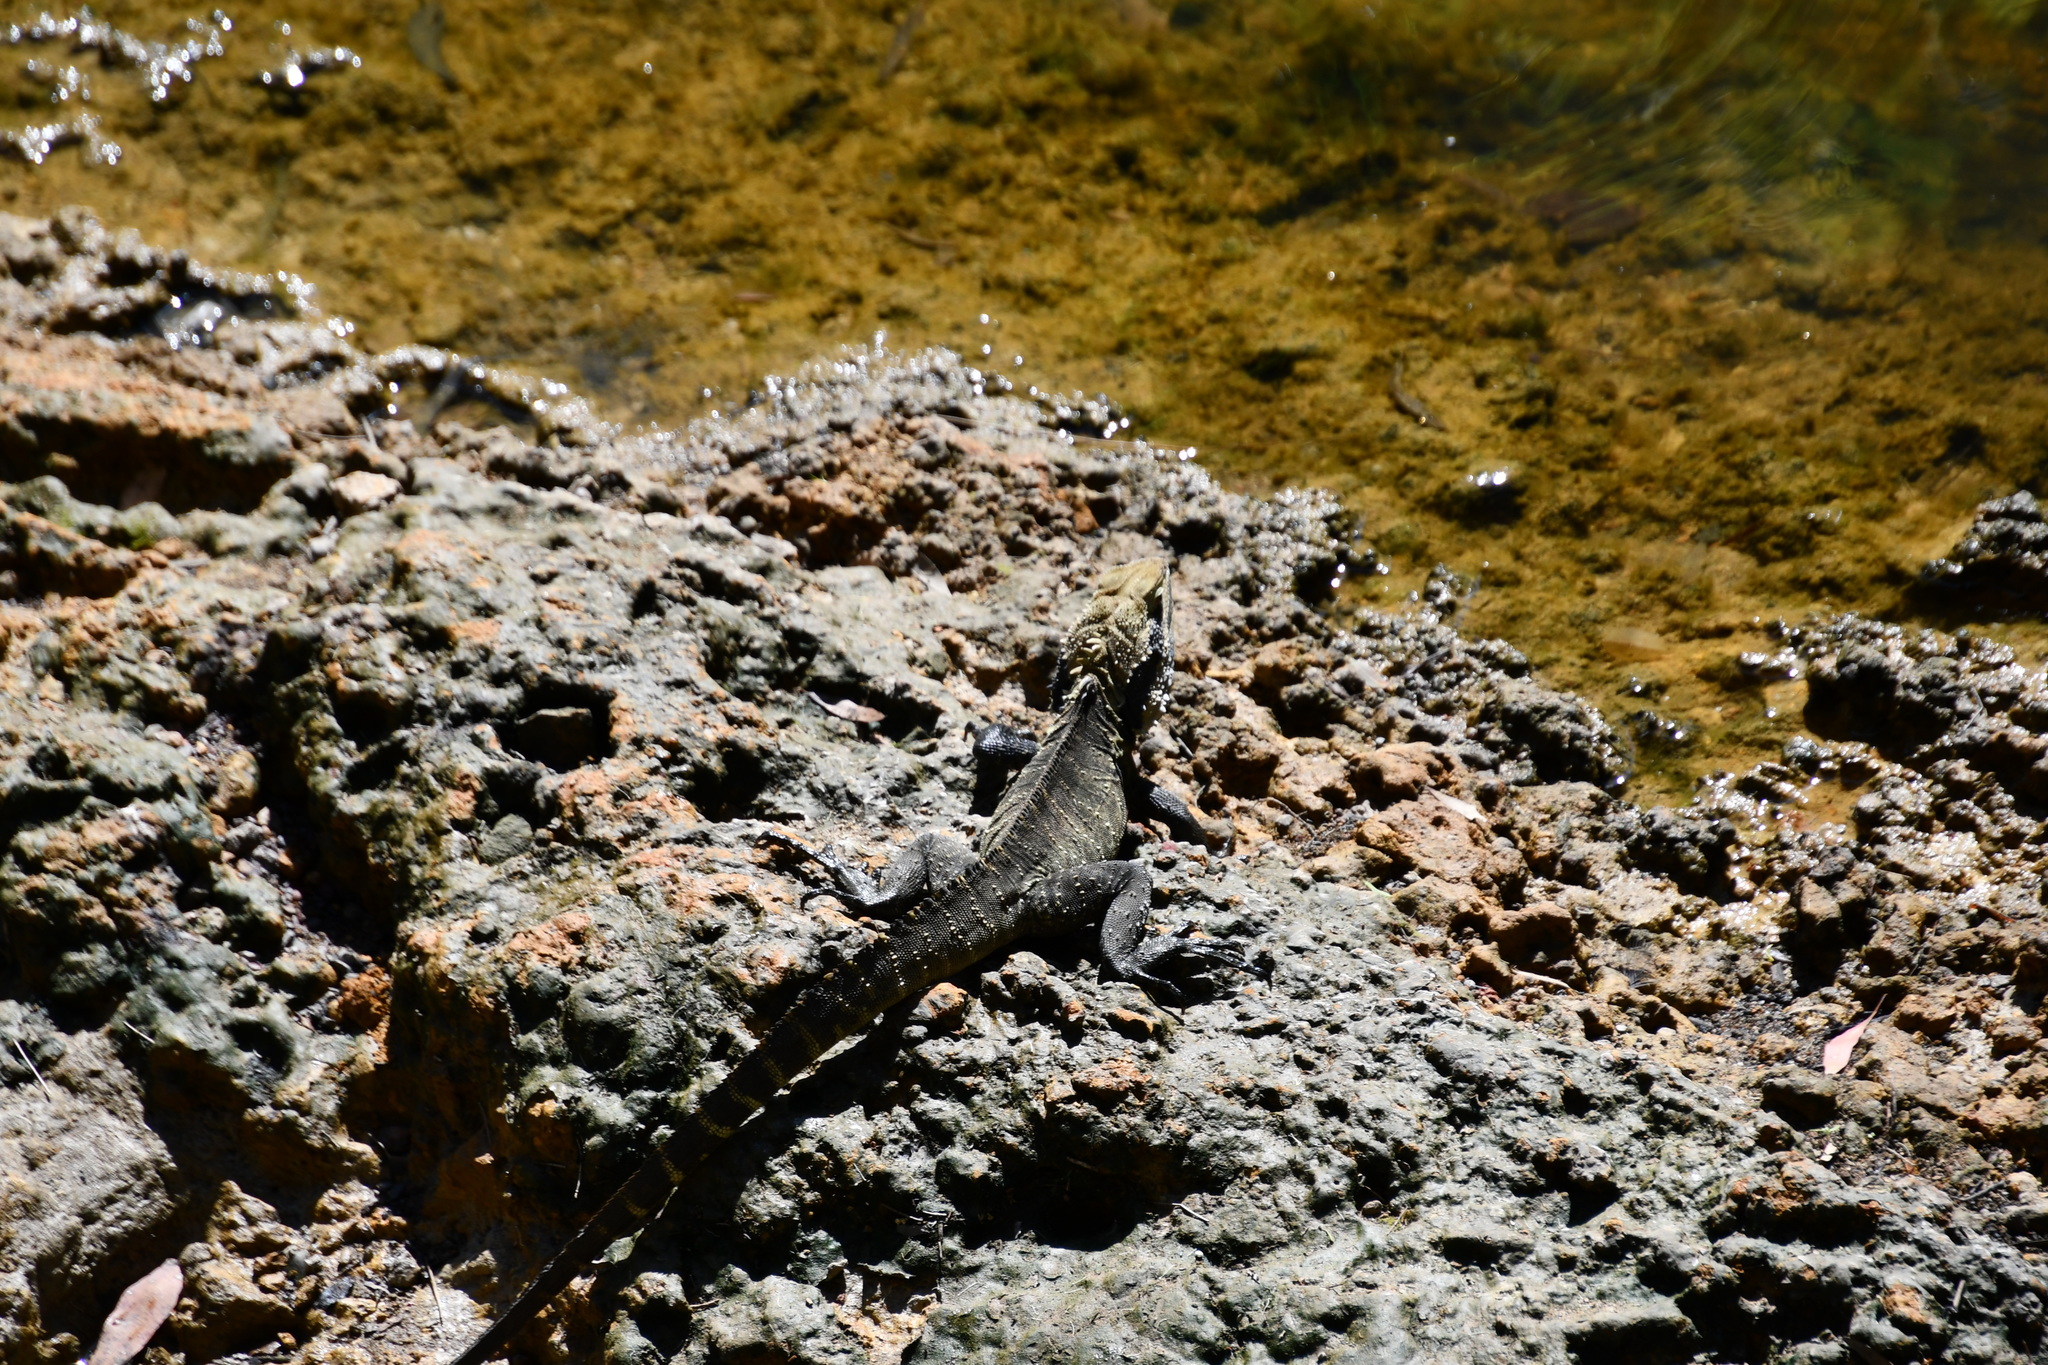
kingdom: Animalia
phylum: Chordata
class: Squamata
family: Agamidae
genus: Intellagama
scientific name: Intellagama lesueurii
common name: Eastern water dragon
